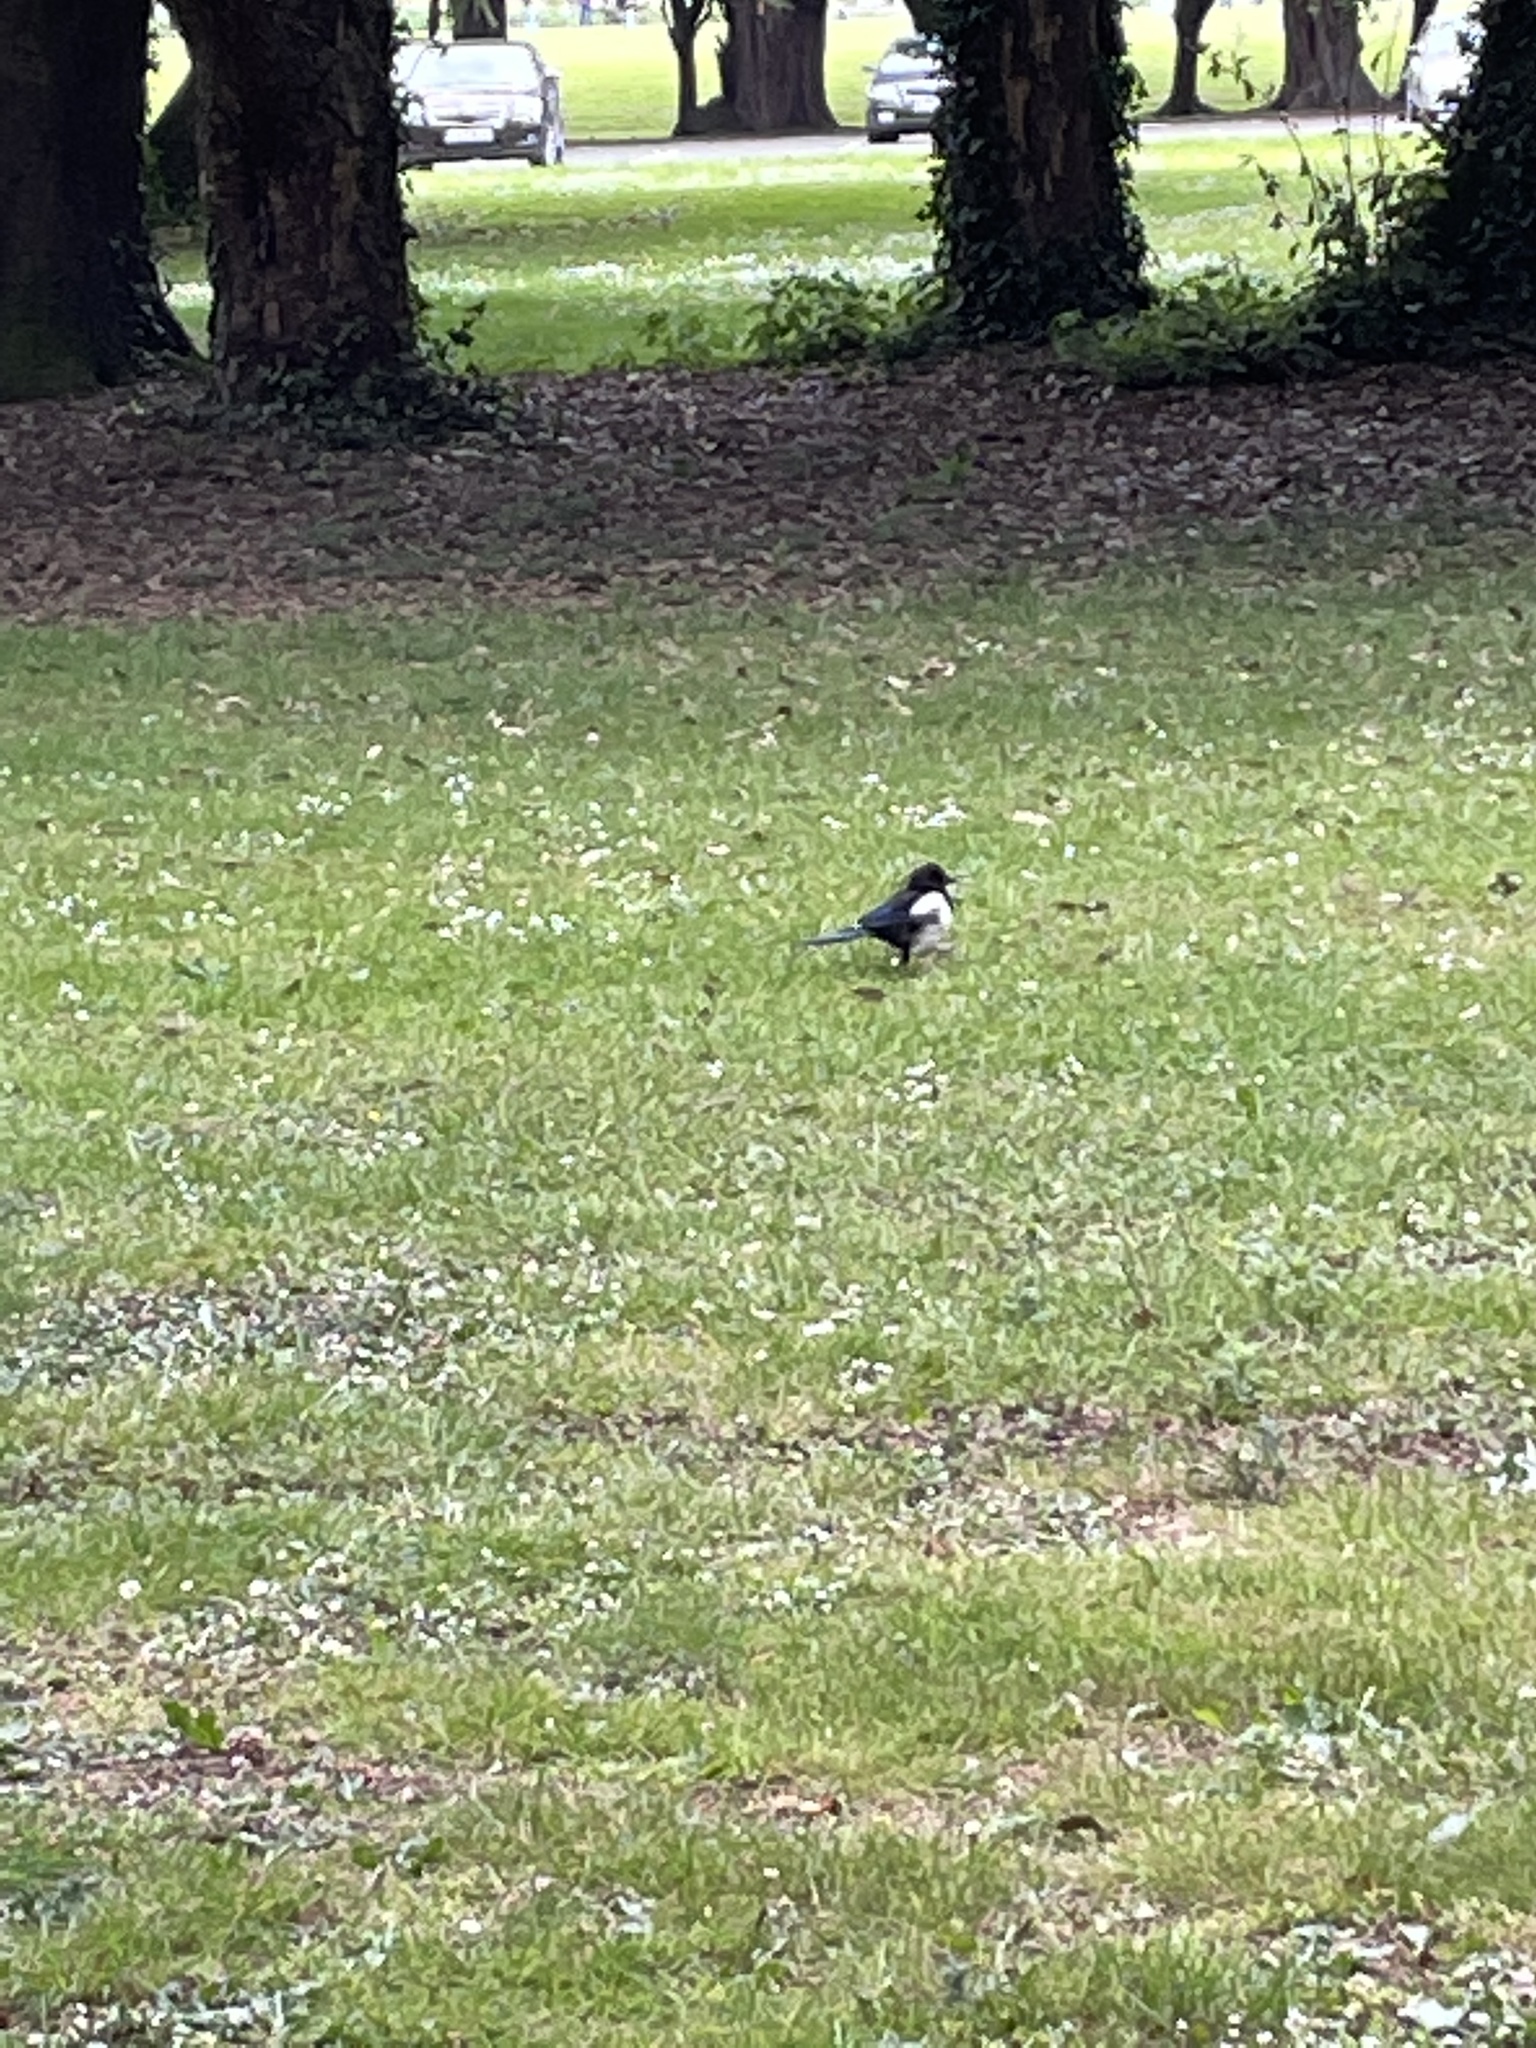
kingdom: Animalia
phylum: Chordata
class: Aves
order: Passeriformes
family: Corvidae
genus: Pica
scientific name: Pica pica
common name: Eurasian magpie
